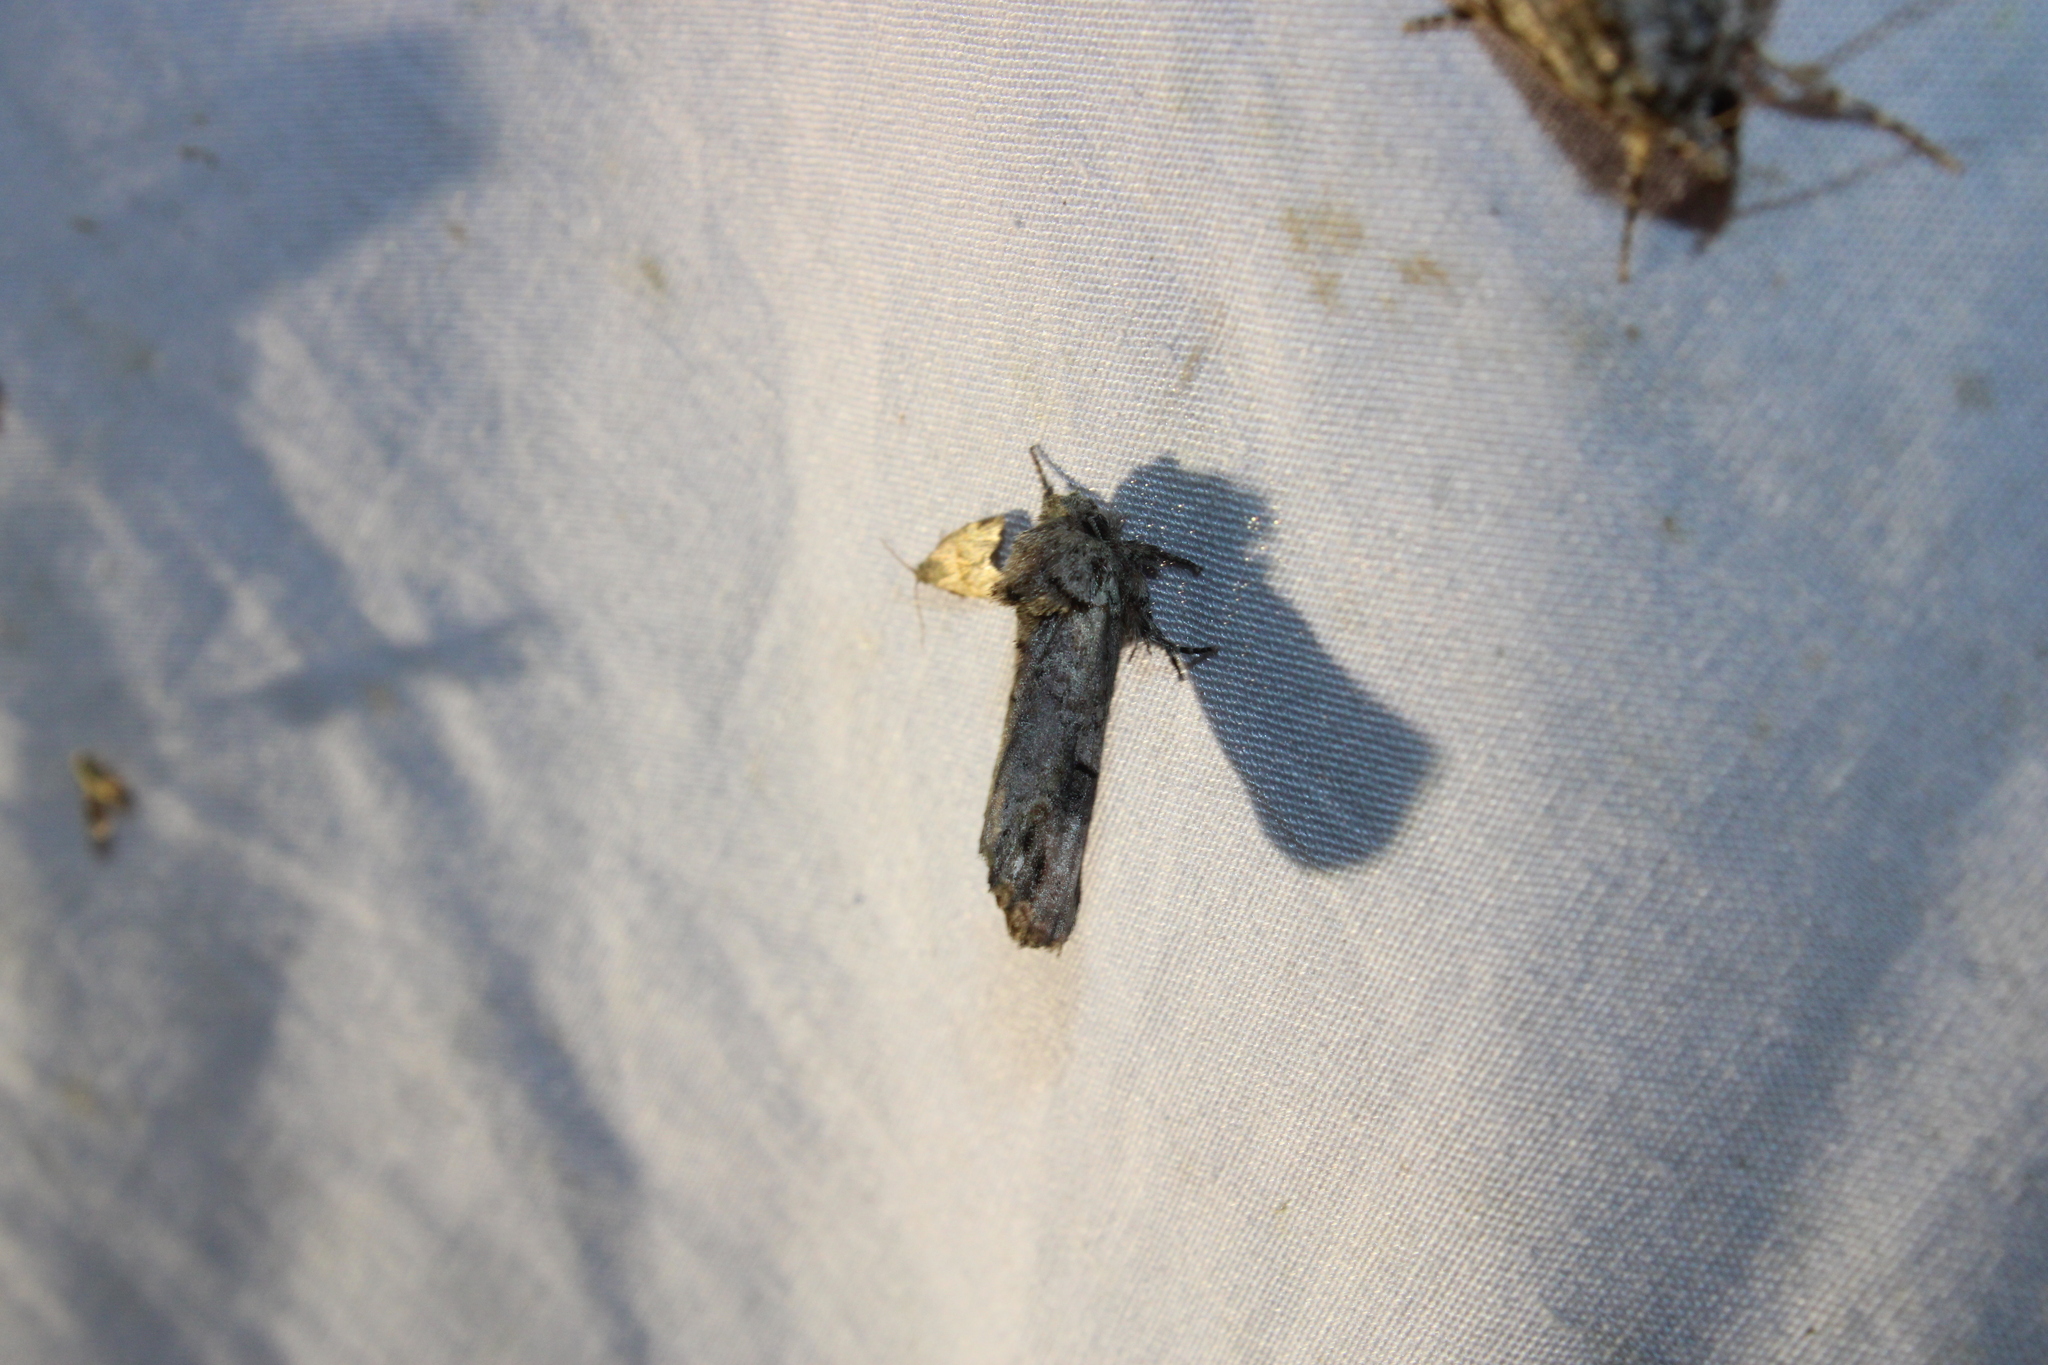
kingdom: Animalia
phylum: Arthropoda
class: Insecta
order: Lepidoptera
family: Notodontidae
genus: Schizura
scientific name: Schizura
